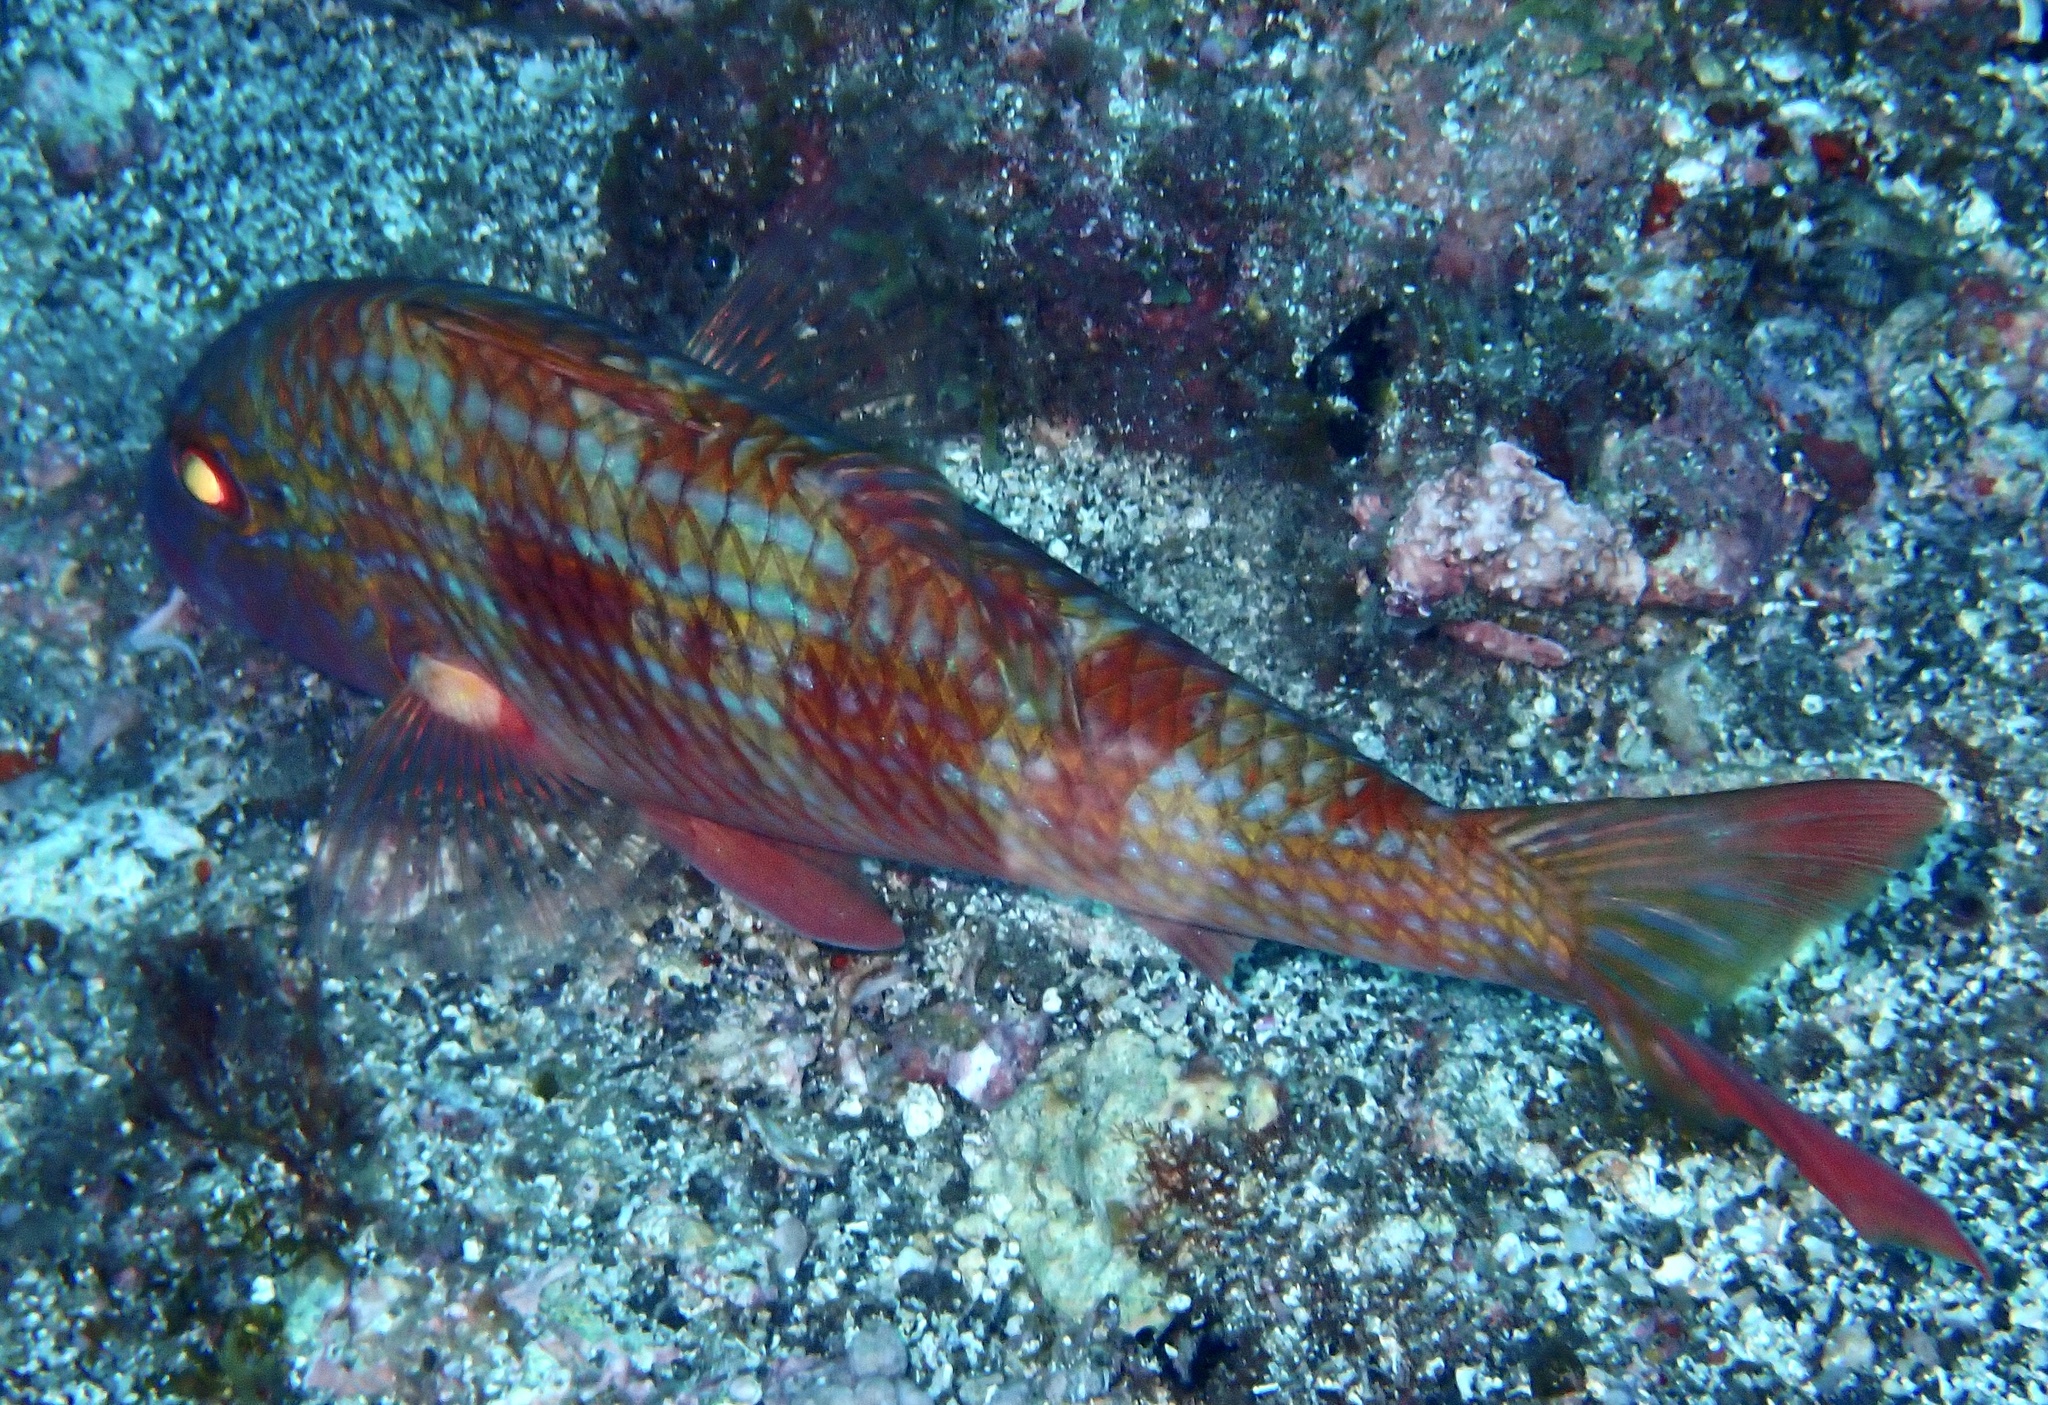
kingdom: Animalia
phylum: Chordata
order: Perciformes
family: Mullidae
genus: Pseudupeneus
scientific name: Pseudupeneus prayensis
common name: West african goatfish
